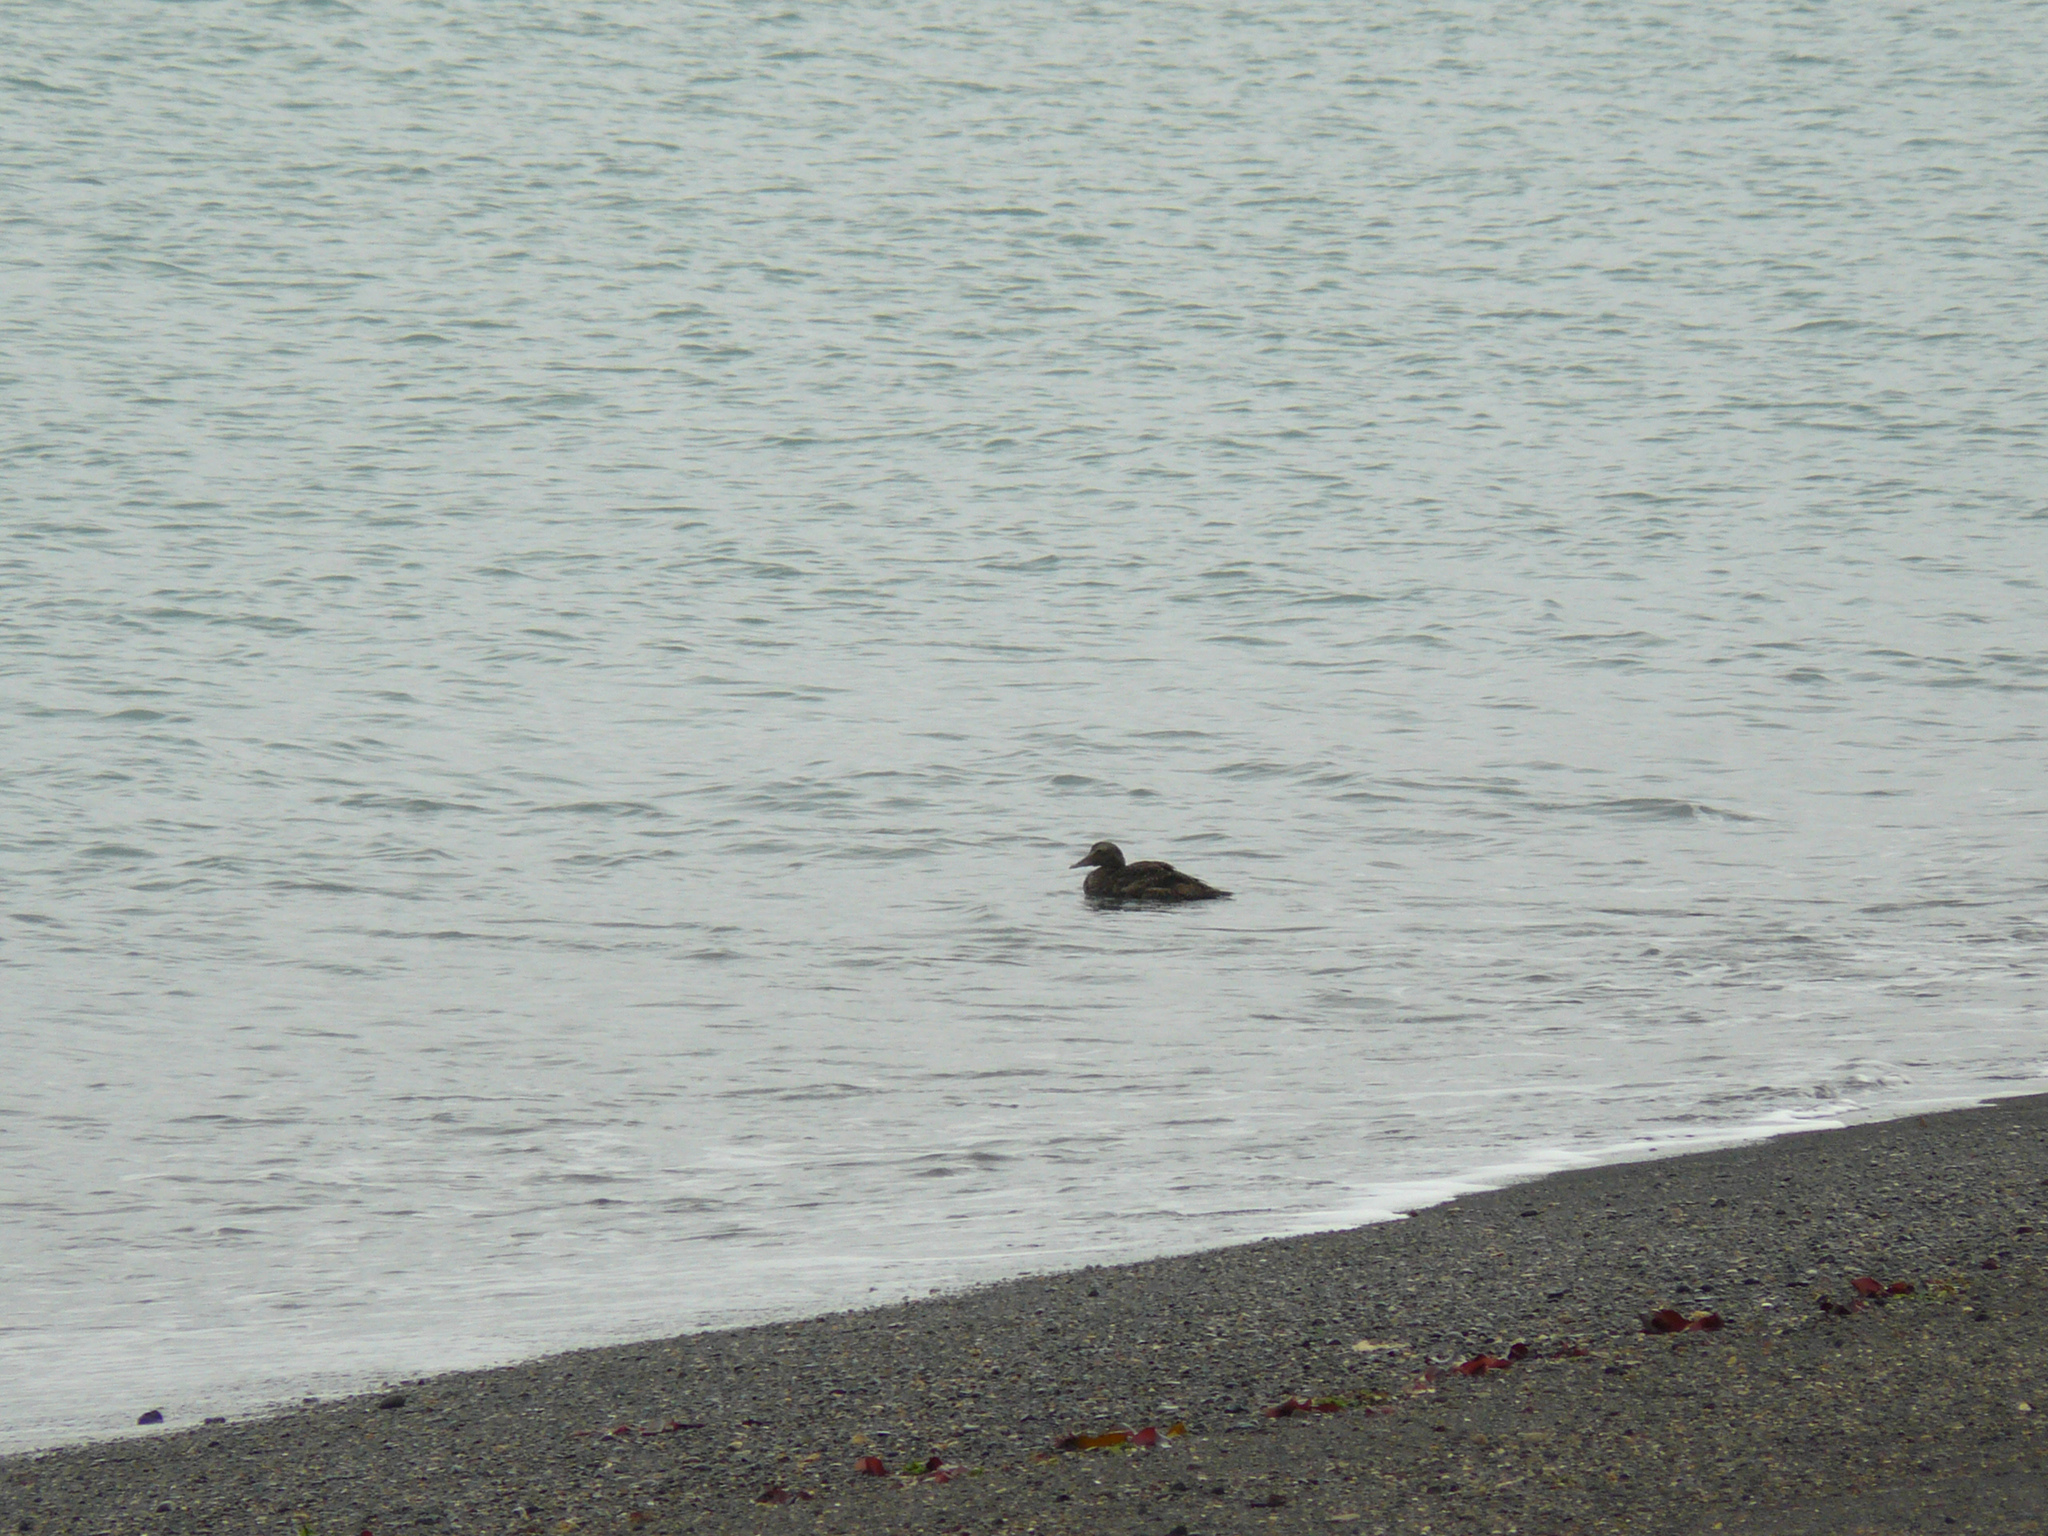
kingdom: Animalia
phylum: Chordata
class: Aves
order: Anseriformes
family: Anatidae
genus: Somateria
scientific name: Somateria mollissima
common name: Common eider
